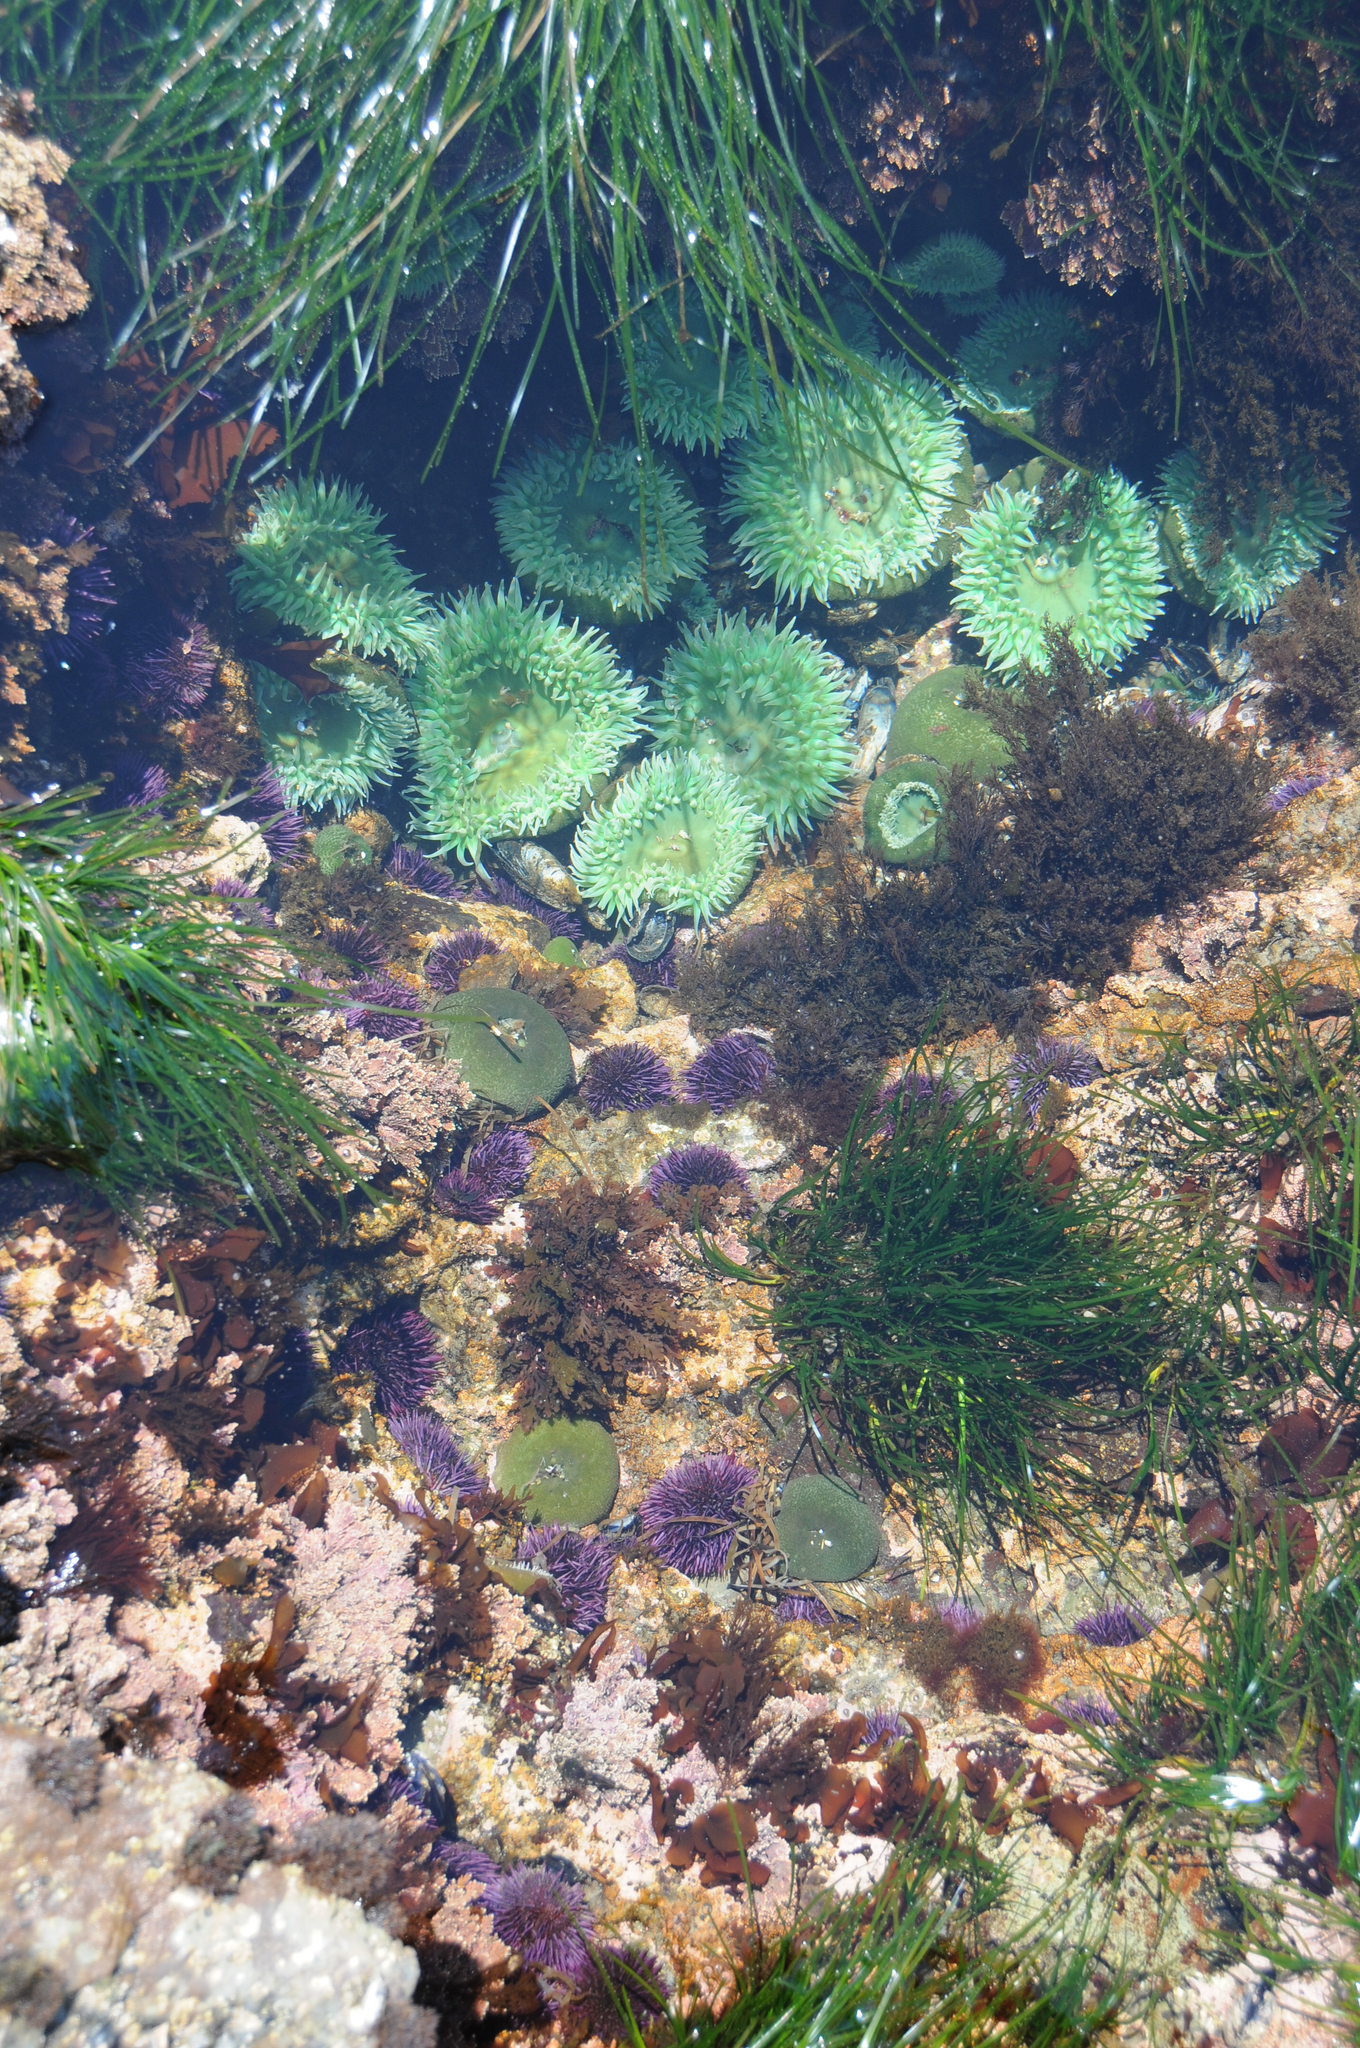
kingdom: Animalia
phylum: Cnidaria
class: Anthozoa
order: Actiniaria
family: Actiniidae
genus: Anthopleura
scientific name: Anthopleura xanthogrammica
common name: Giant green anemone
